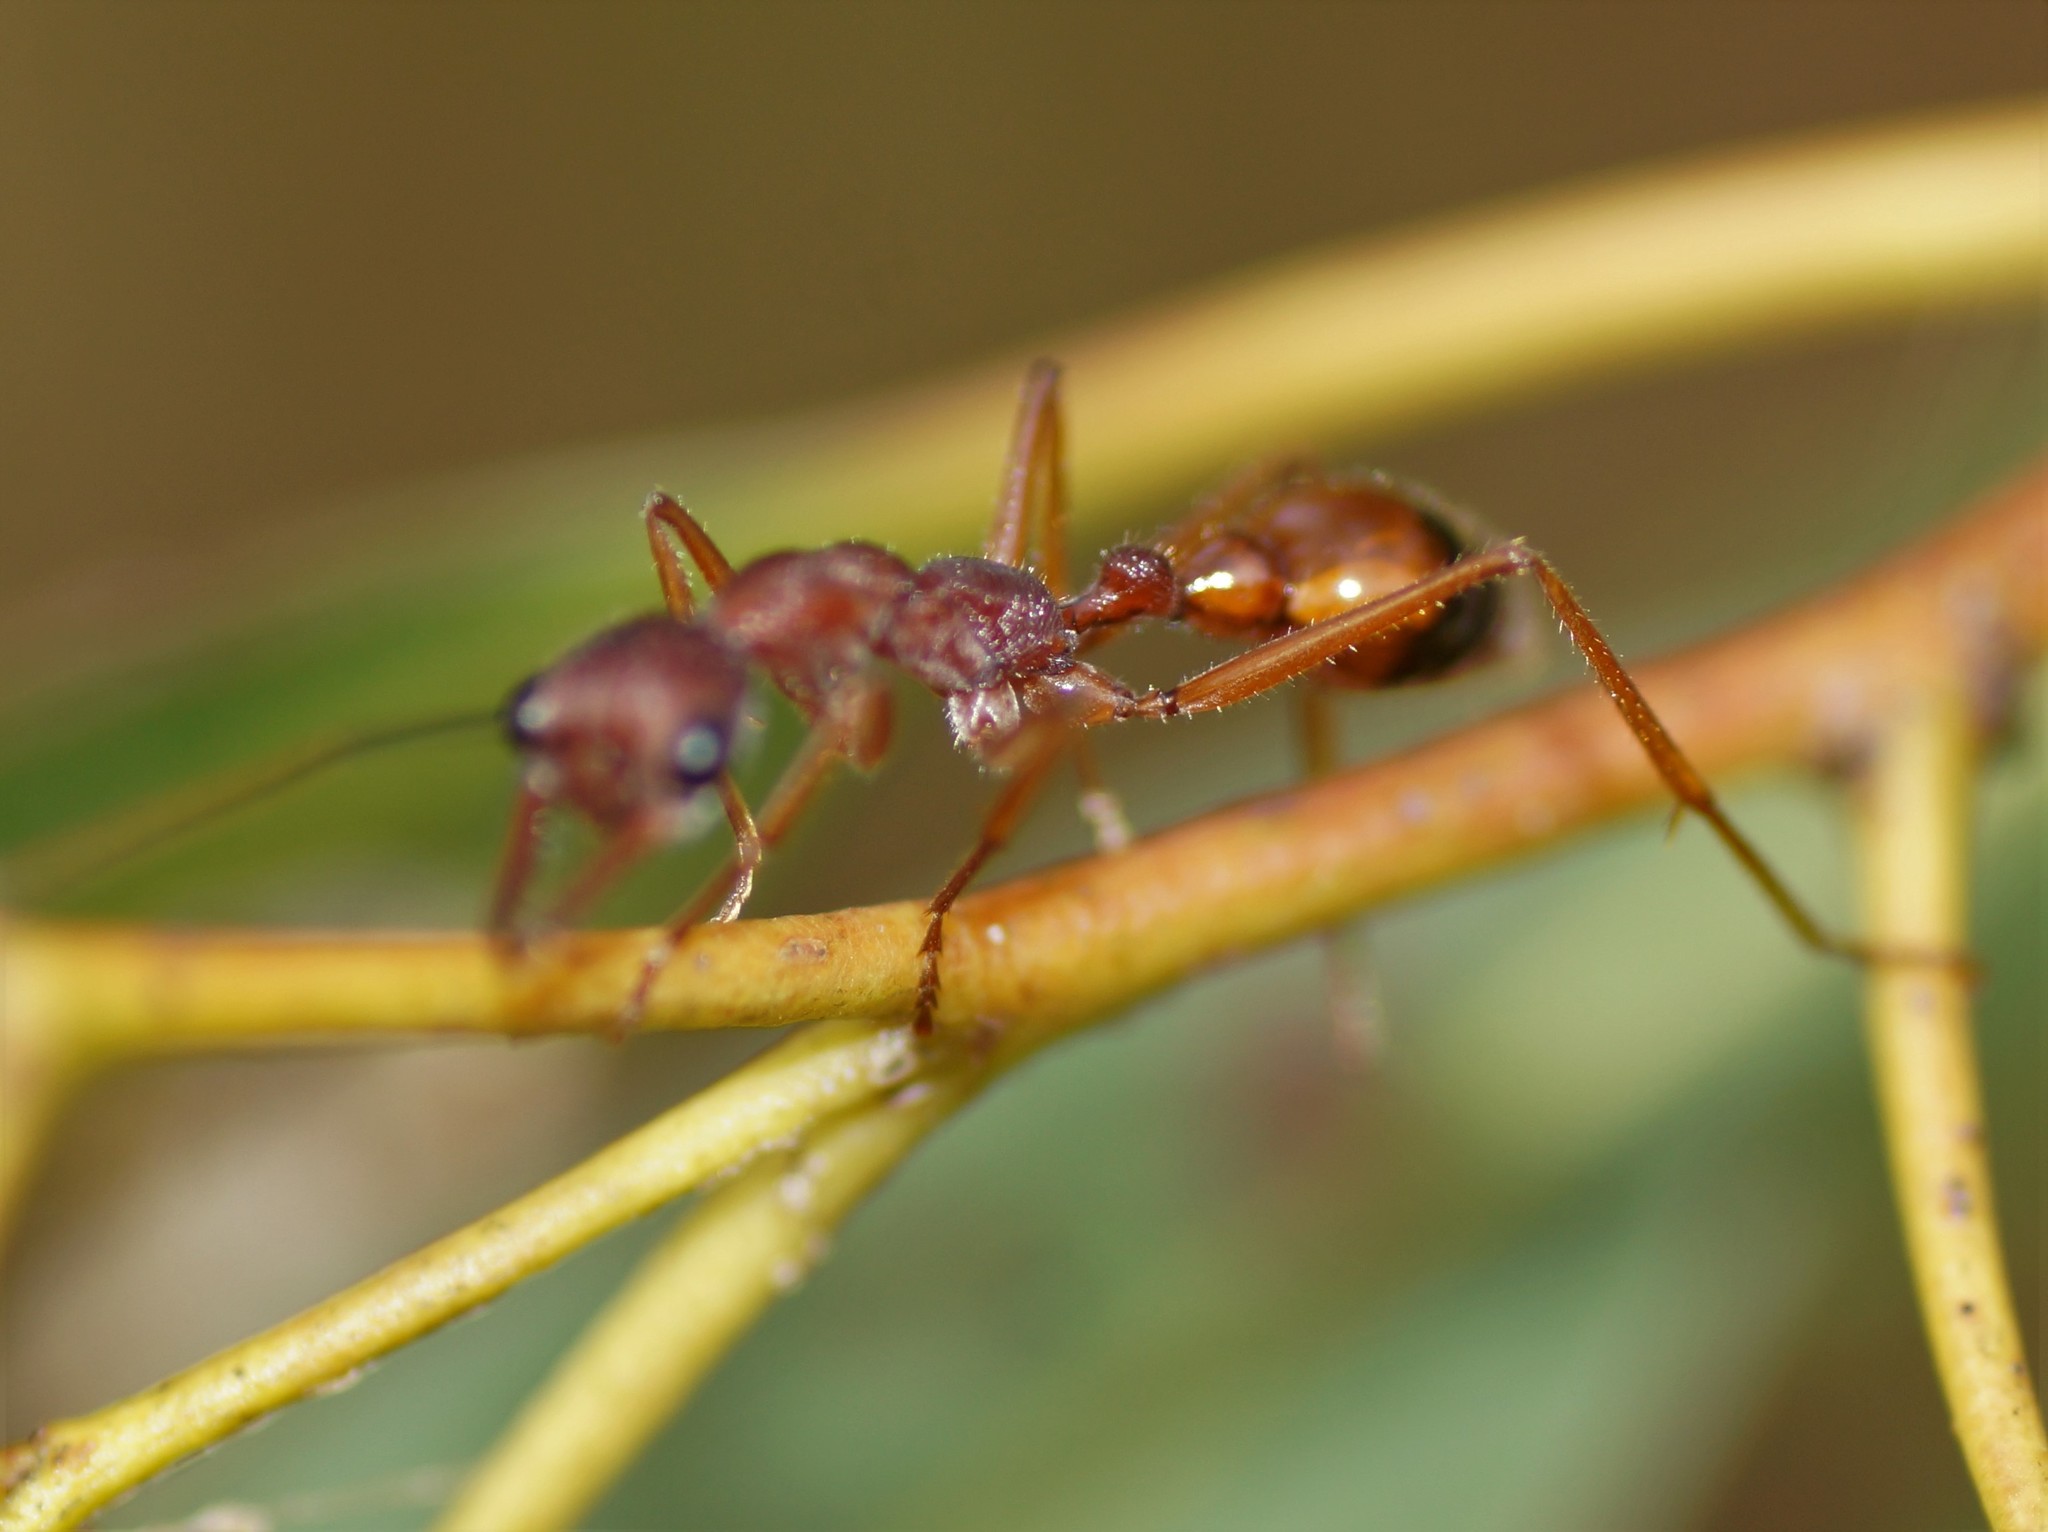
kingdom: Animalia
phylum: Arthropoda
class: Insecta
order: Hymenoptera
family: Formicidae
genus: Myrmecia
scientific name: Myrmecia nigriscapa
